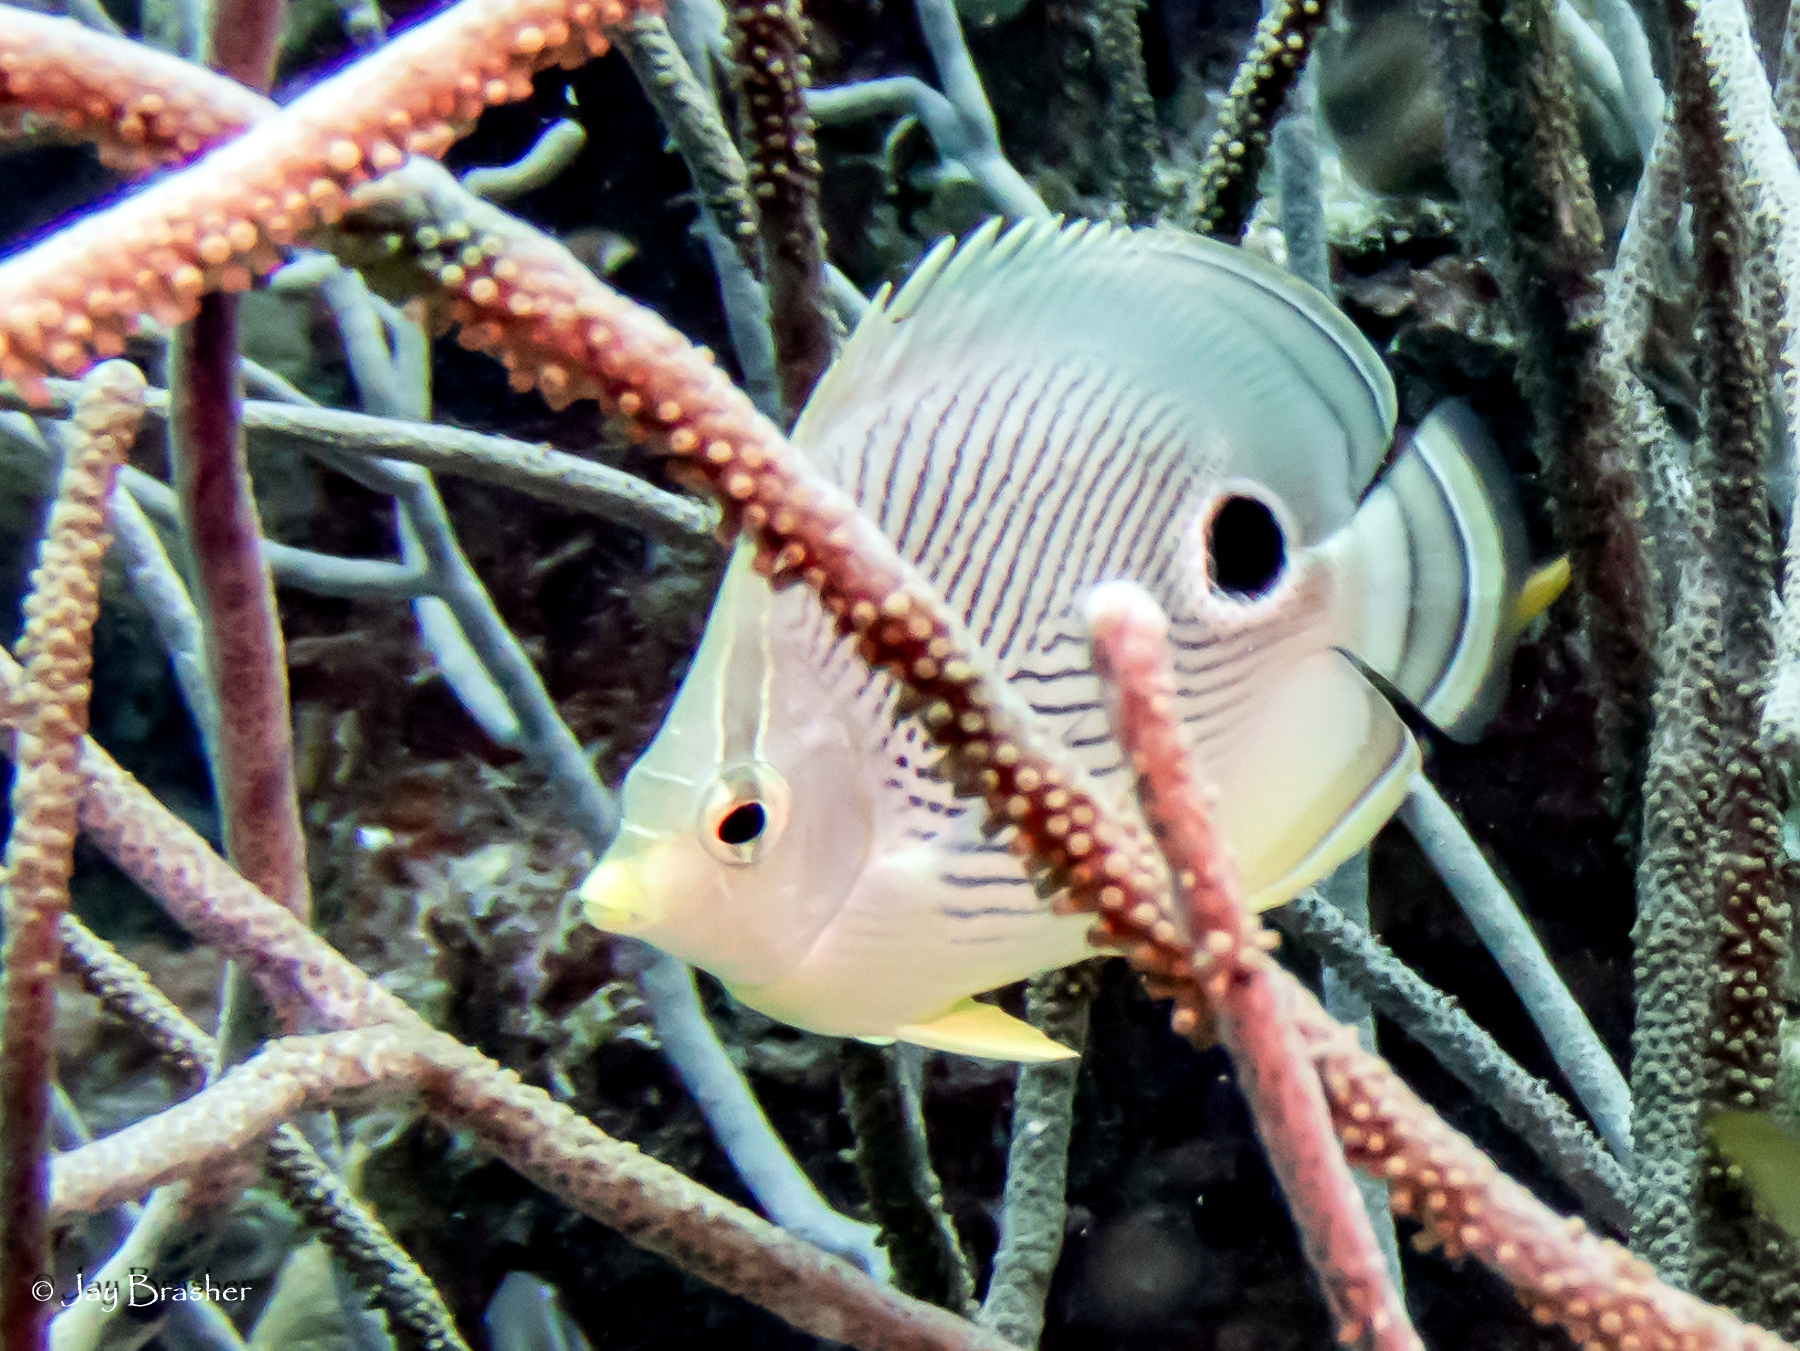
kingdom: Animalia
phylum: Chordata
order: Perciformes
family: Chaetodontidae
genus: Chaetodon
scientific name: Chaetodon capistratus
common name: Kete
